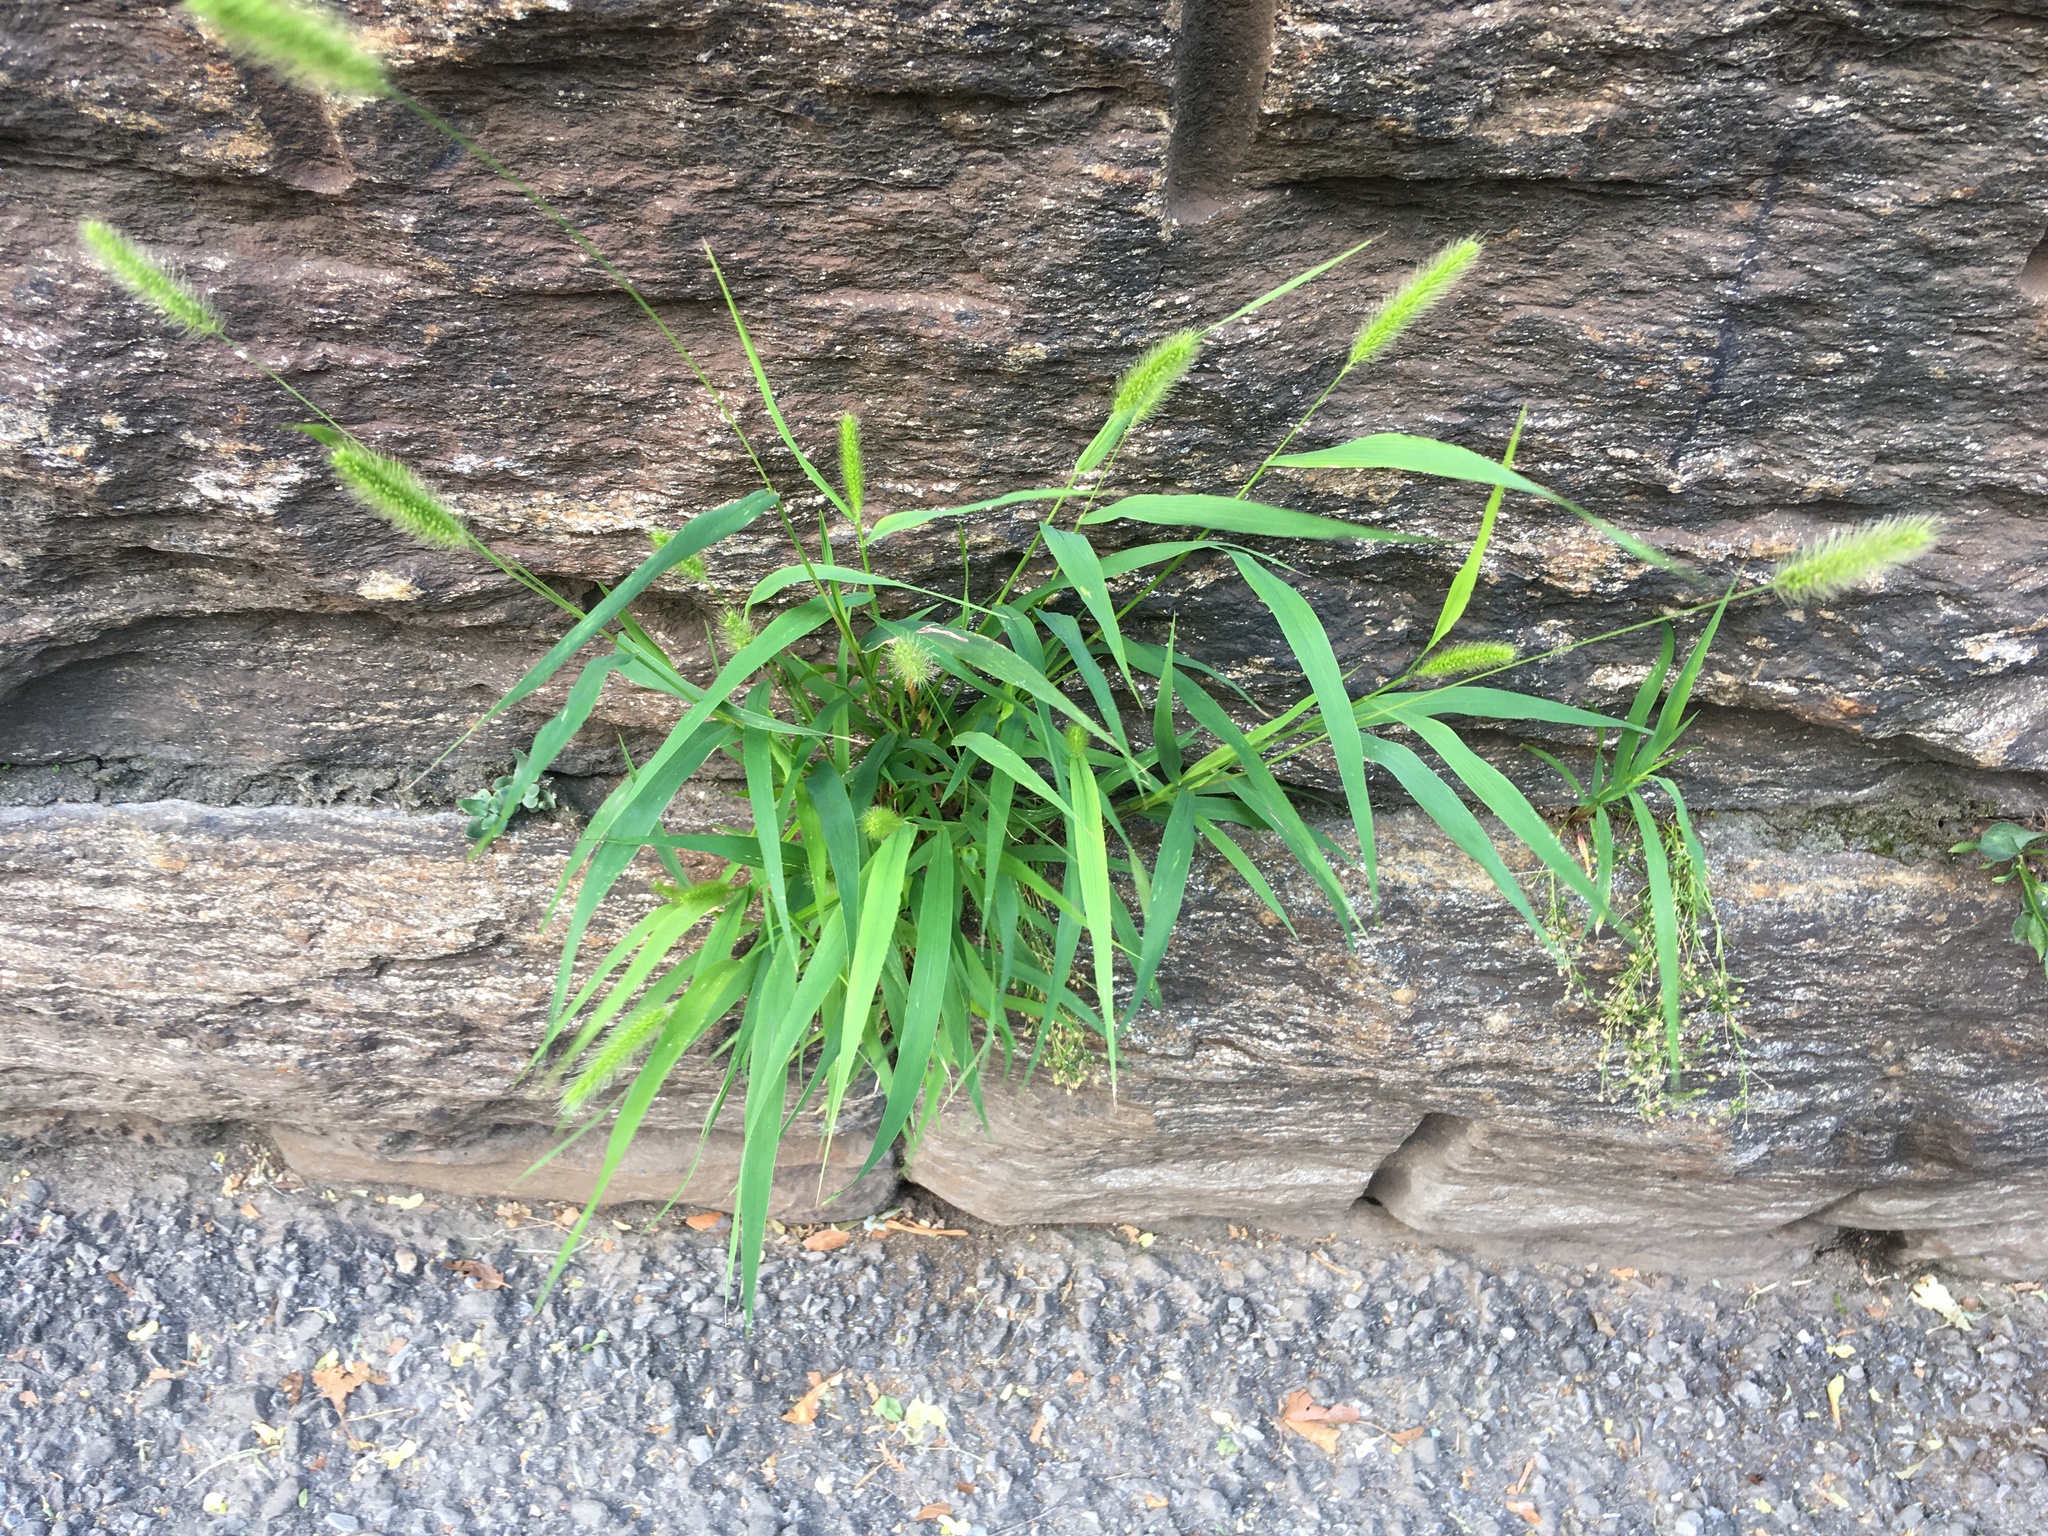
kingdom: Plantae
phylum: Tracheophyta
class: Liliopsida
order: Poales
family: Poaceae
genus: Setaria
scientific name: Setaria viridis
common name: Green bristlegrass
